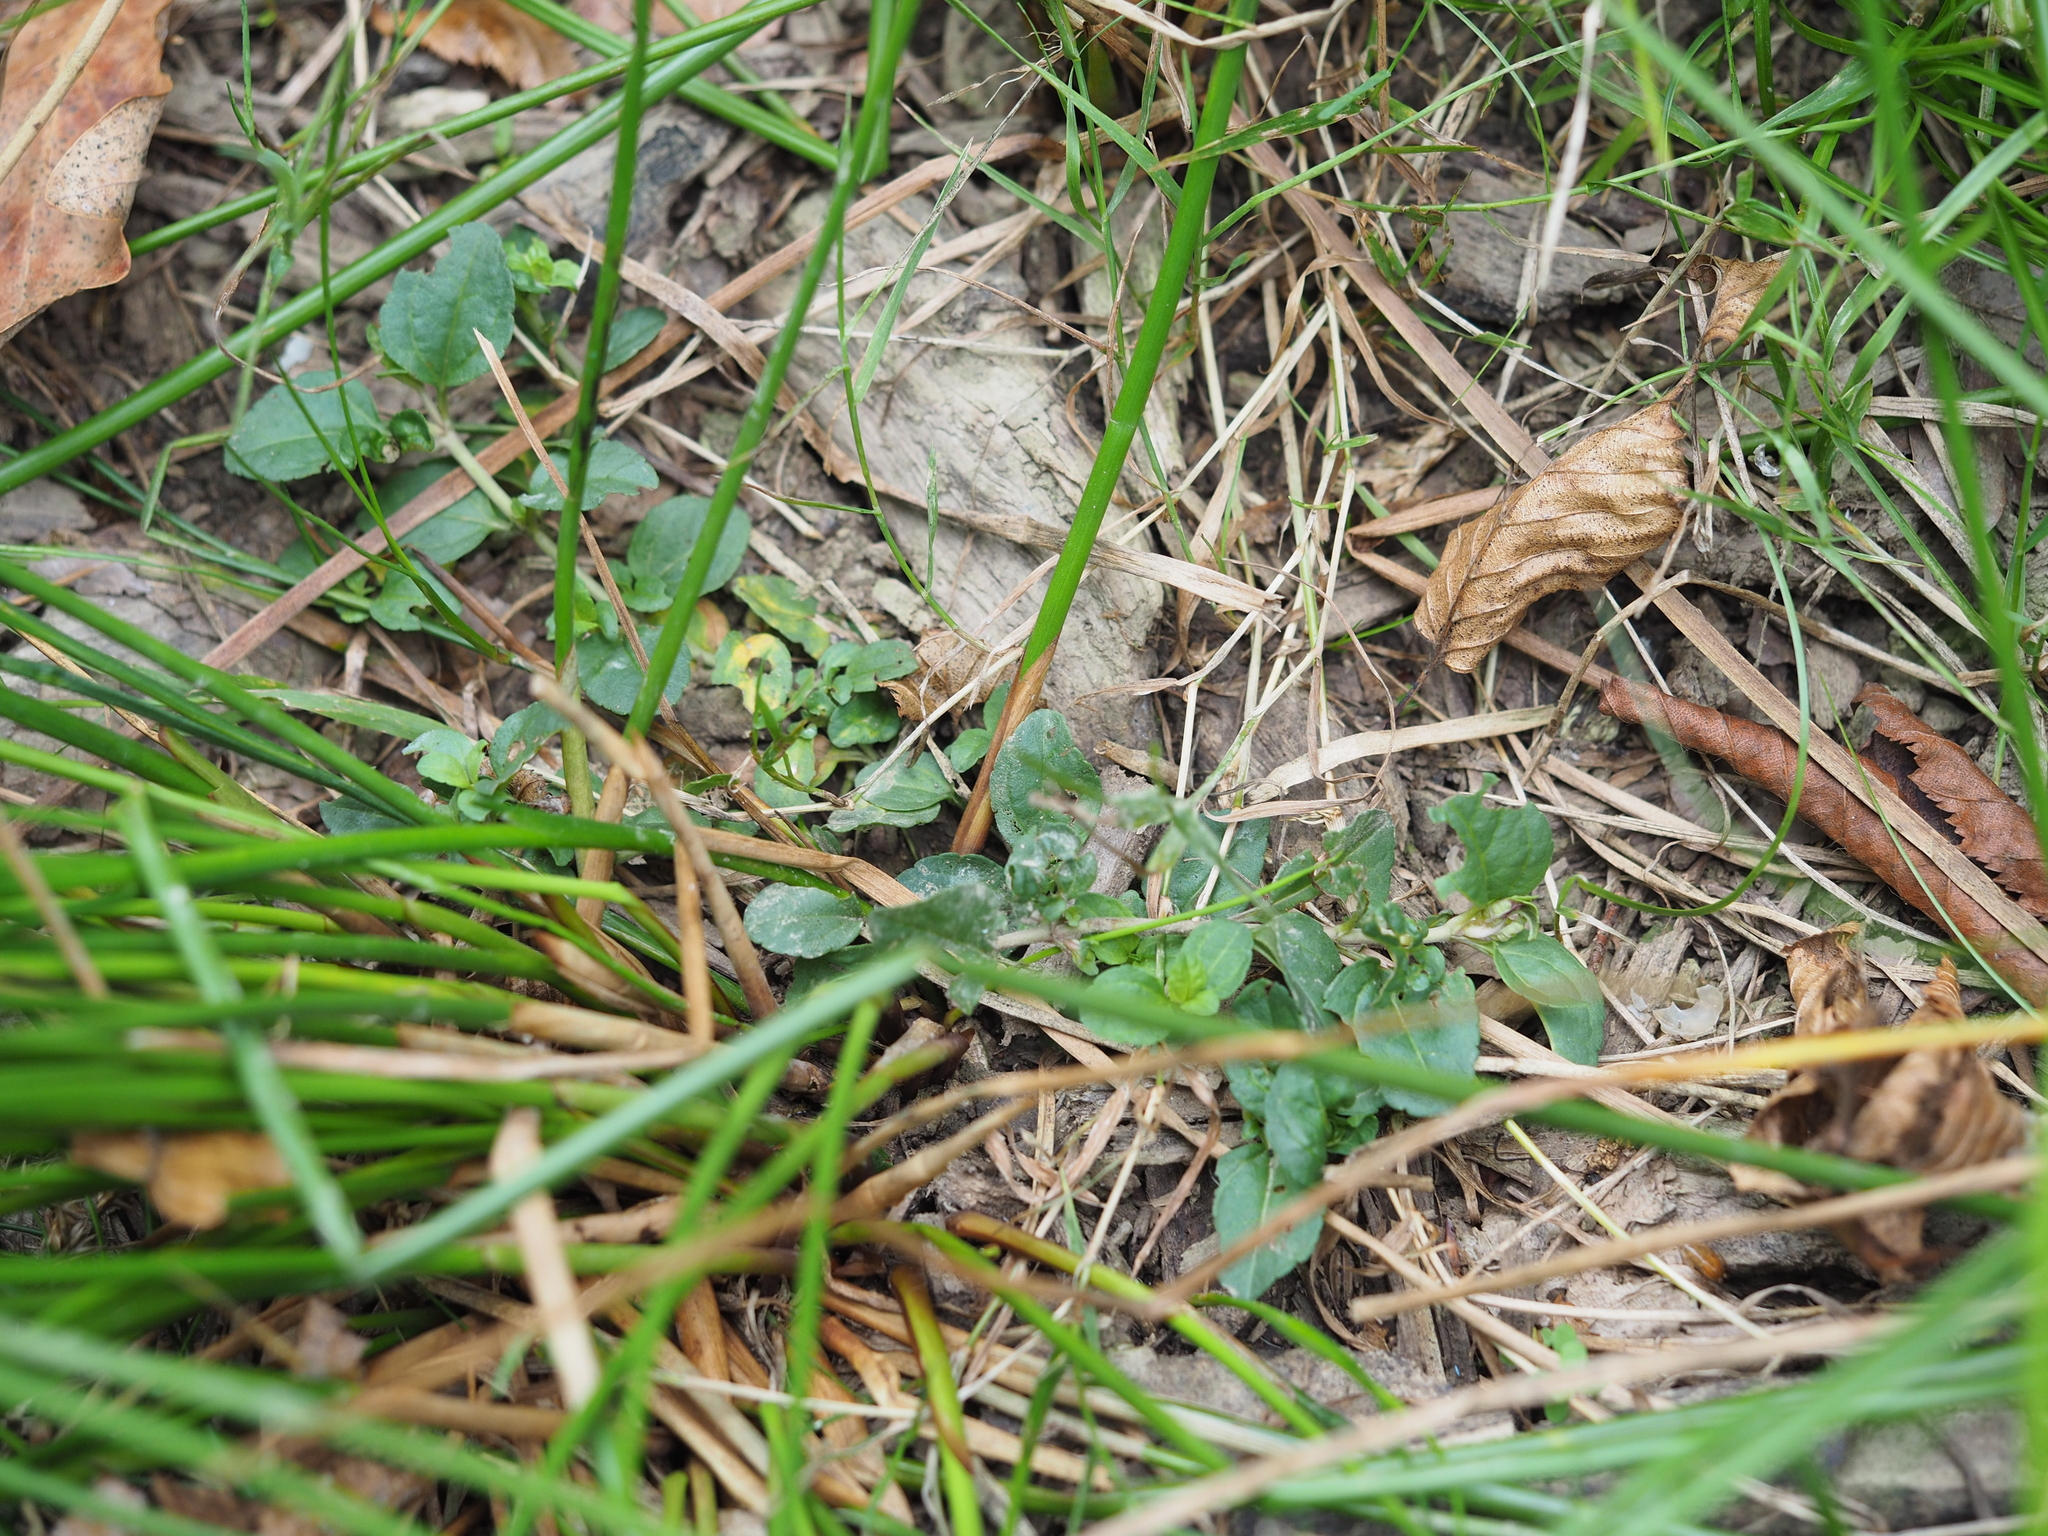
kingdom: Plantae
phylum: Tracheophyta
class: Magnoliopsida
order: Lamiales
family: Plantaginaceae
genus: Veronica
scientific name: Veronica serpyllifolia
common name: Thyme-leaved speedwell
